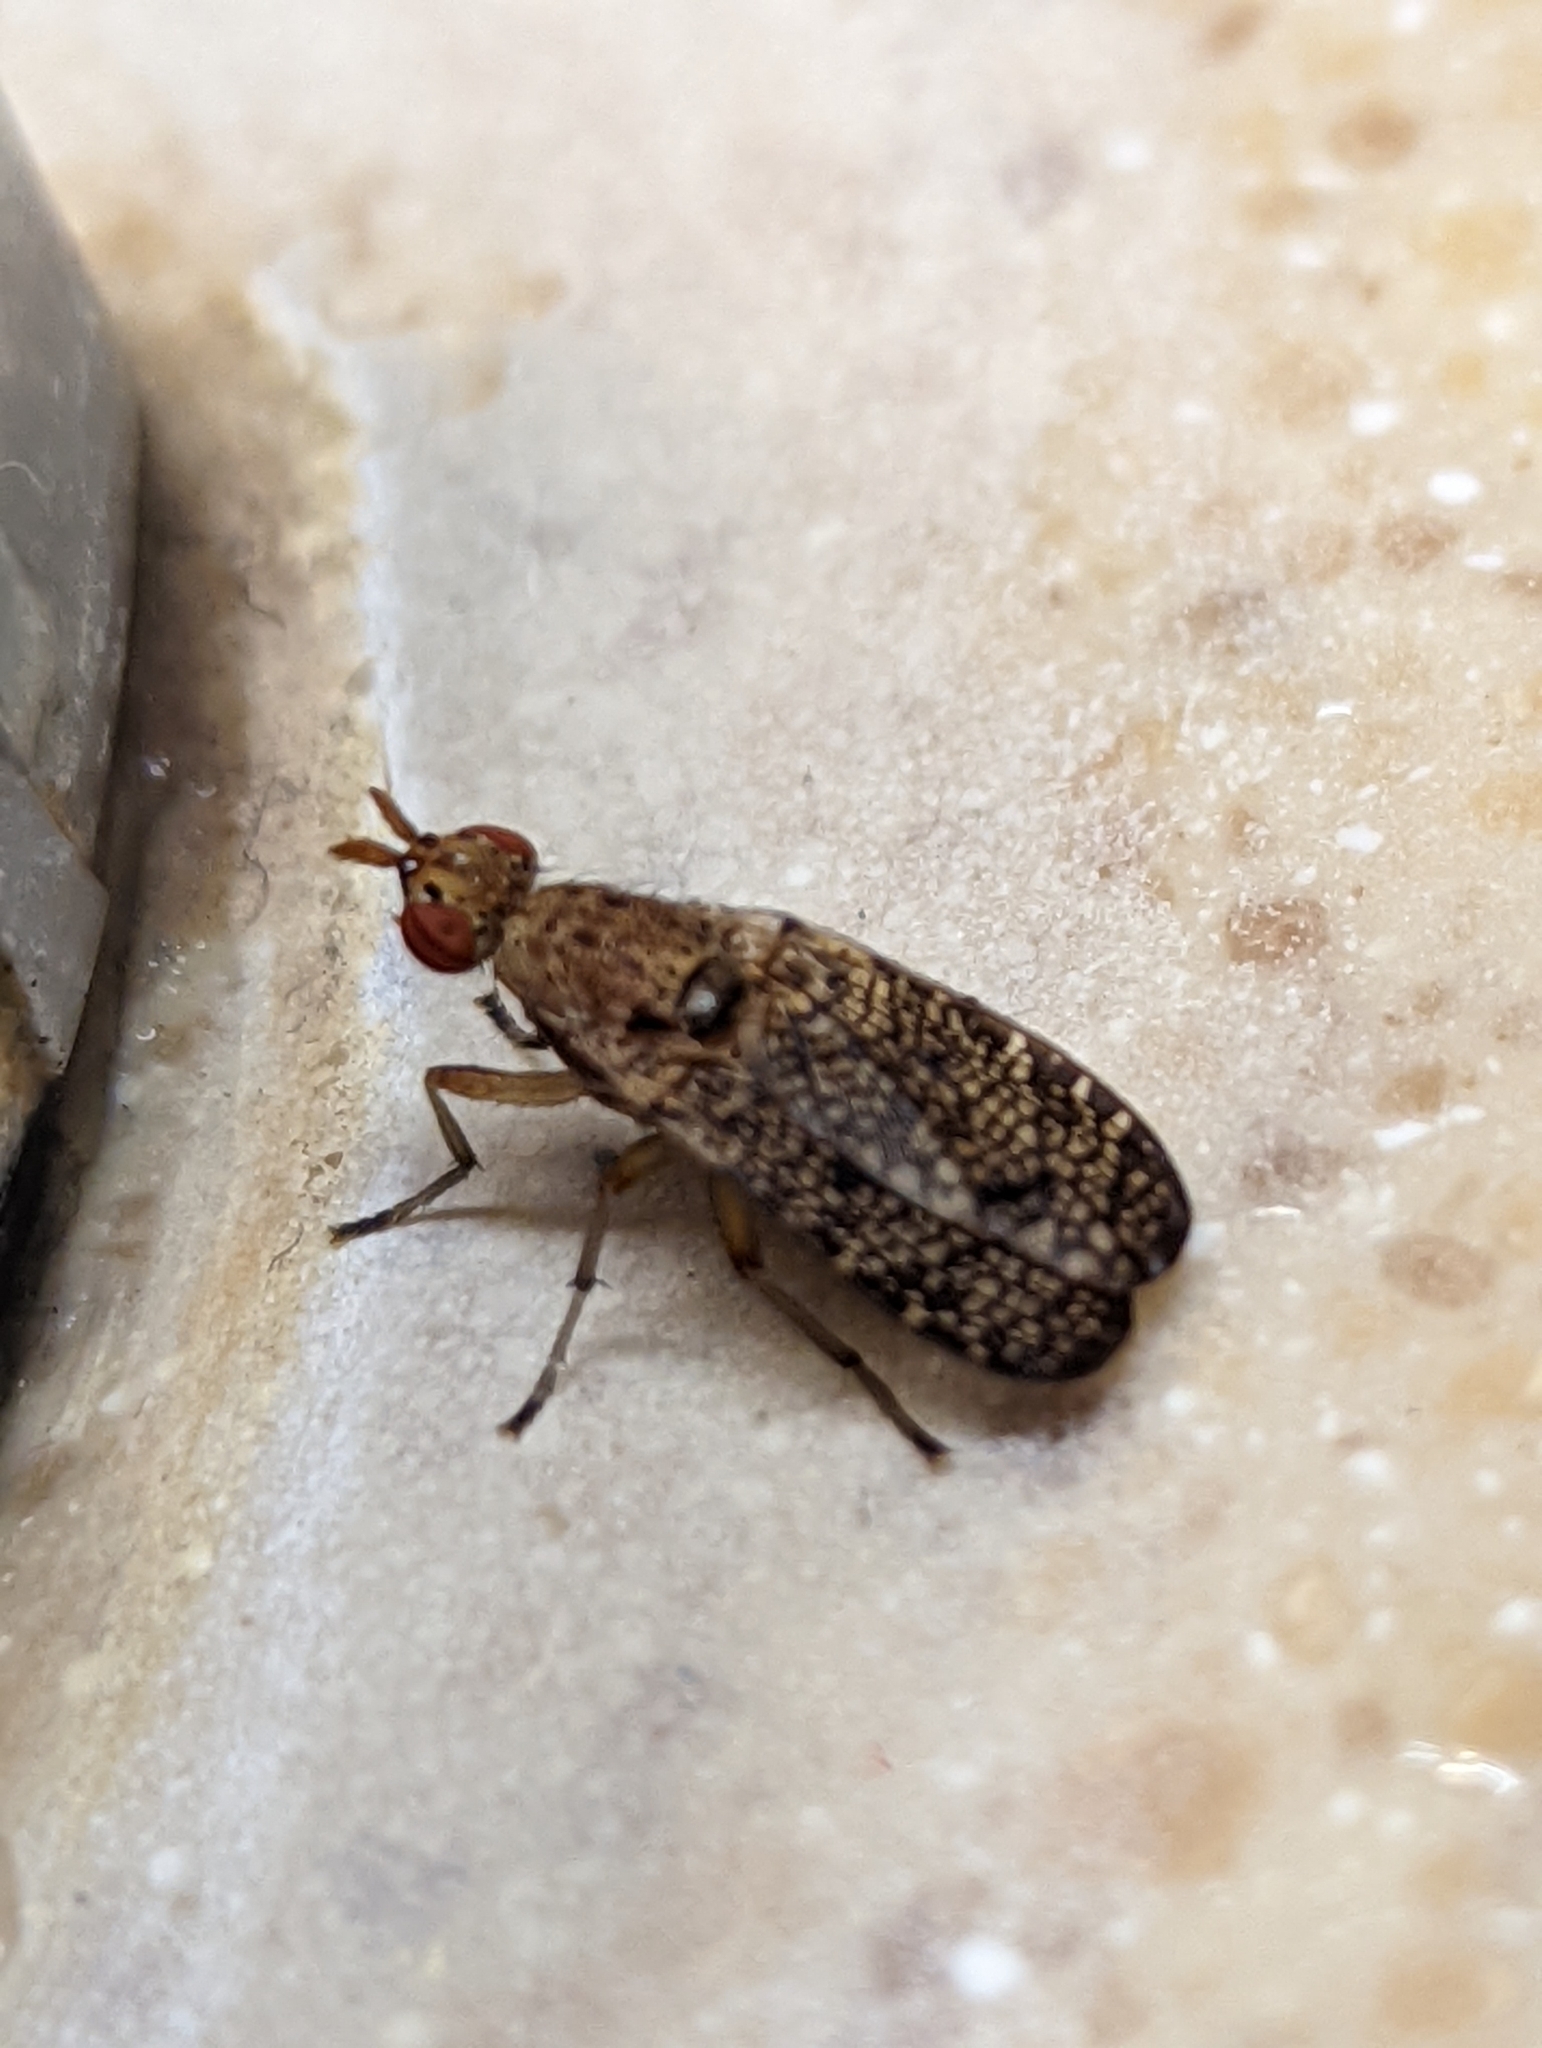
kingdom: Animalia
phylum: Arthropoda
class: Insecta
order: Diptera
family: Sciomyzidae
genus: Euthycera
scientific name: Euthycera flavescens
